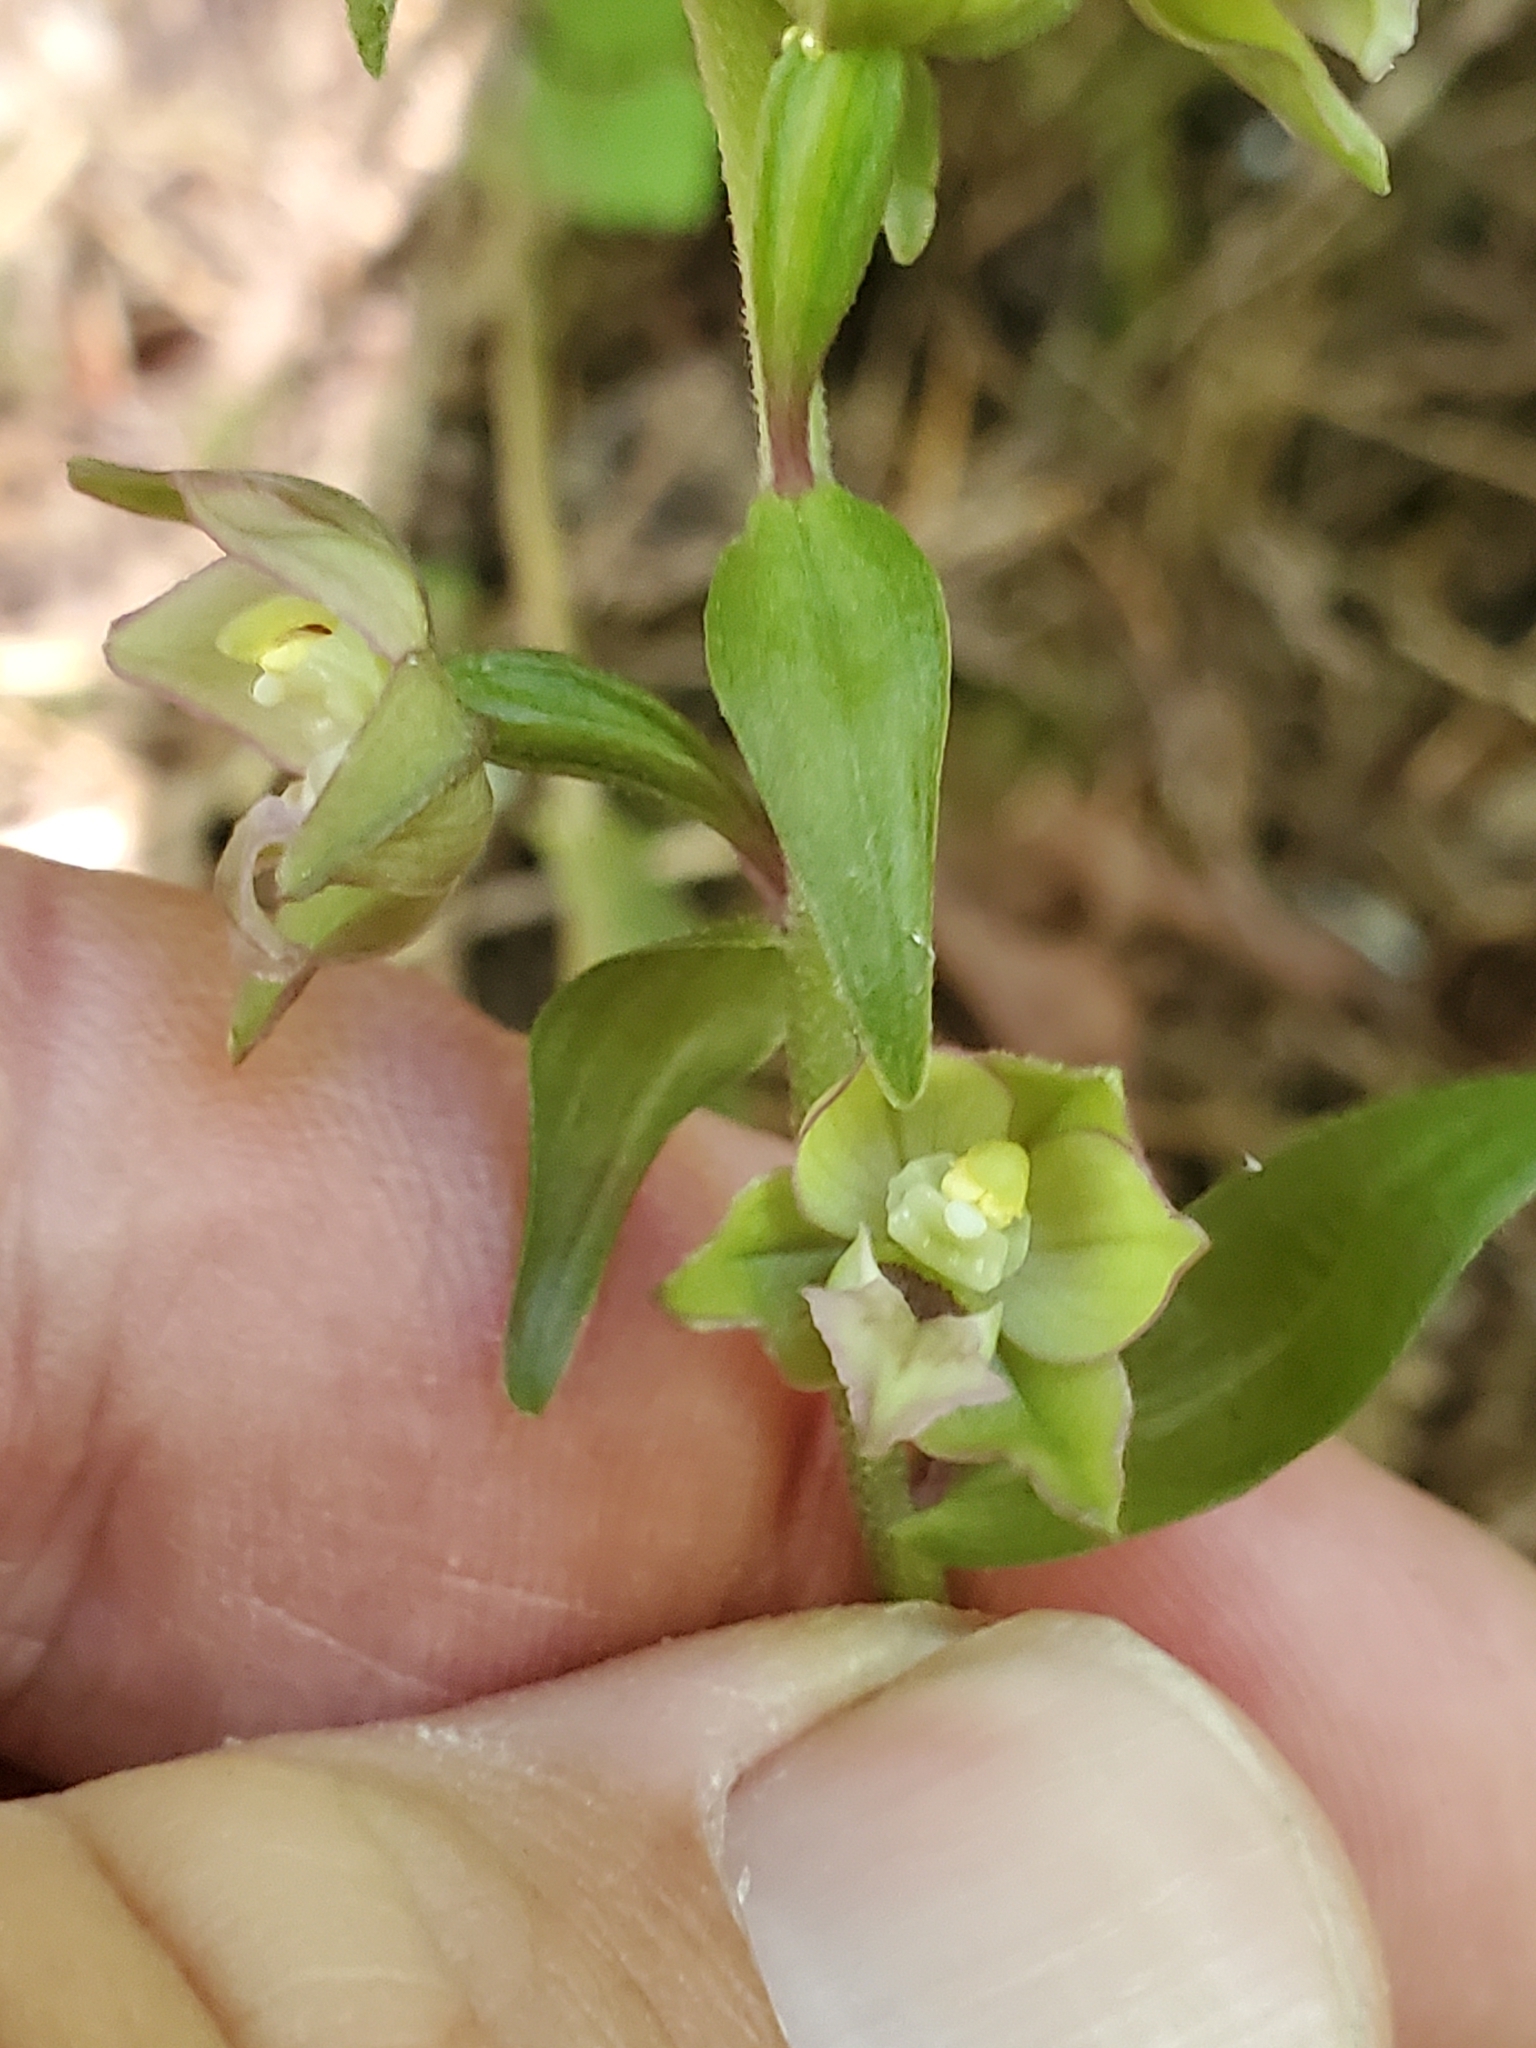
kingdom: Plantae
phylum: Tracheophyta
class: Liliopsida
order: Asparagales
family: Orchidaceae
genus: Epipactis
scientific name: Epipactis helleborine
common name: Broad-leaved helleborine
